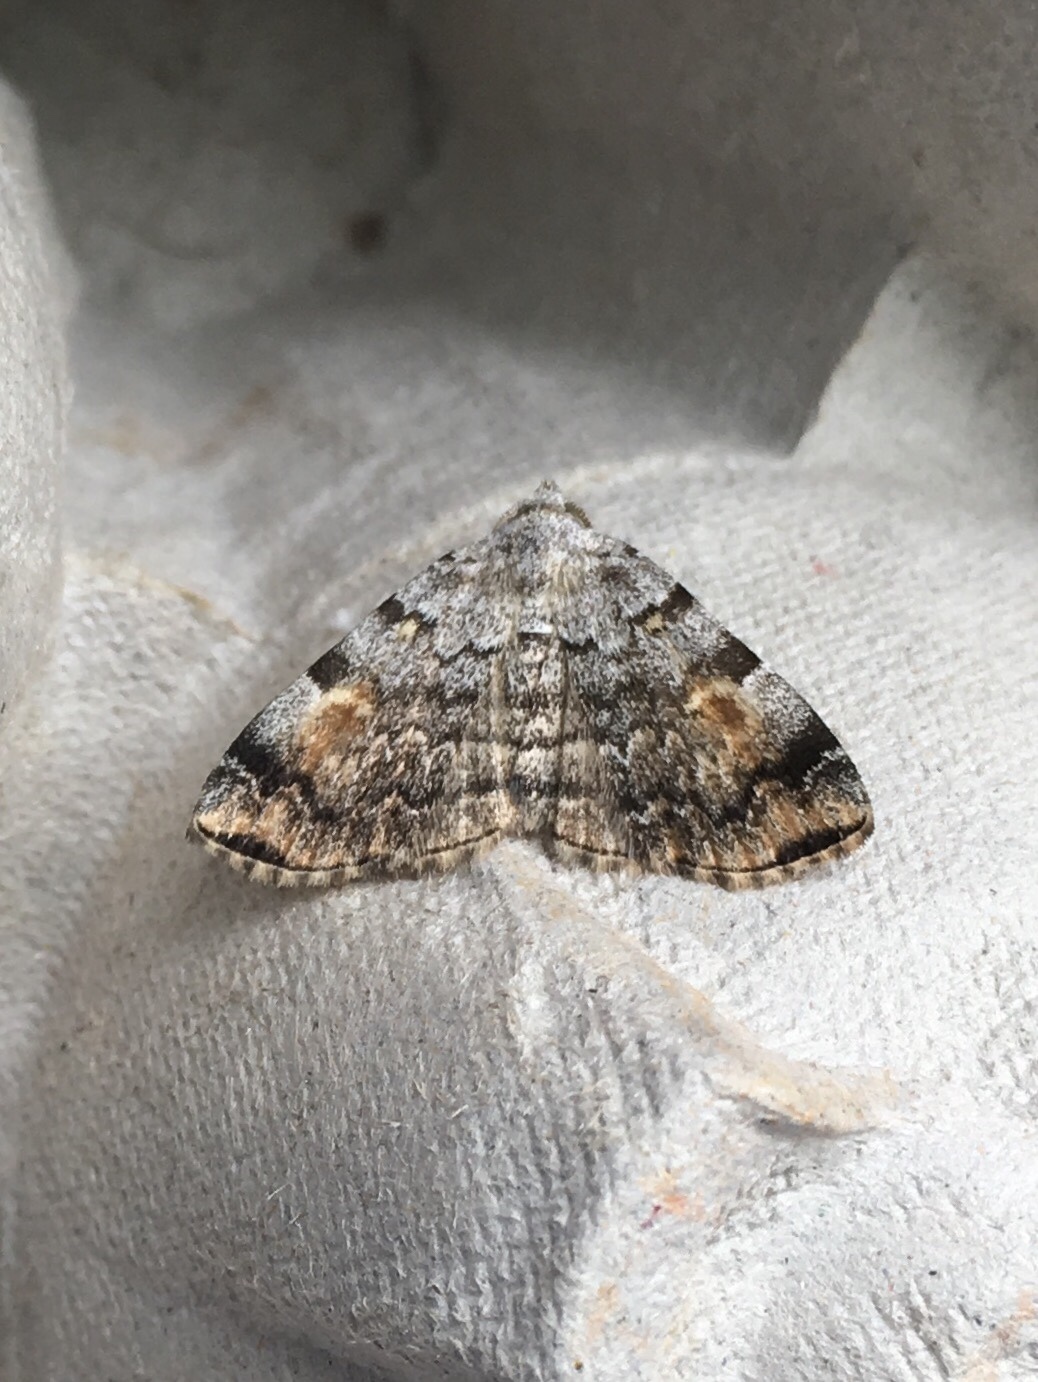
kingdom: Animalia
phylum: Arthropoda
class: Insecta
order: Lepidoptera
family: Erebidae
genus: Idia
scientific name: Idia americalis
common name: American idia moth
